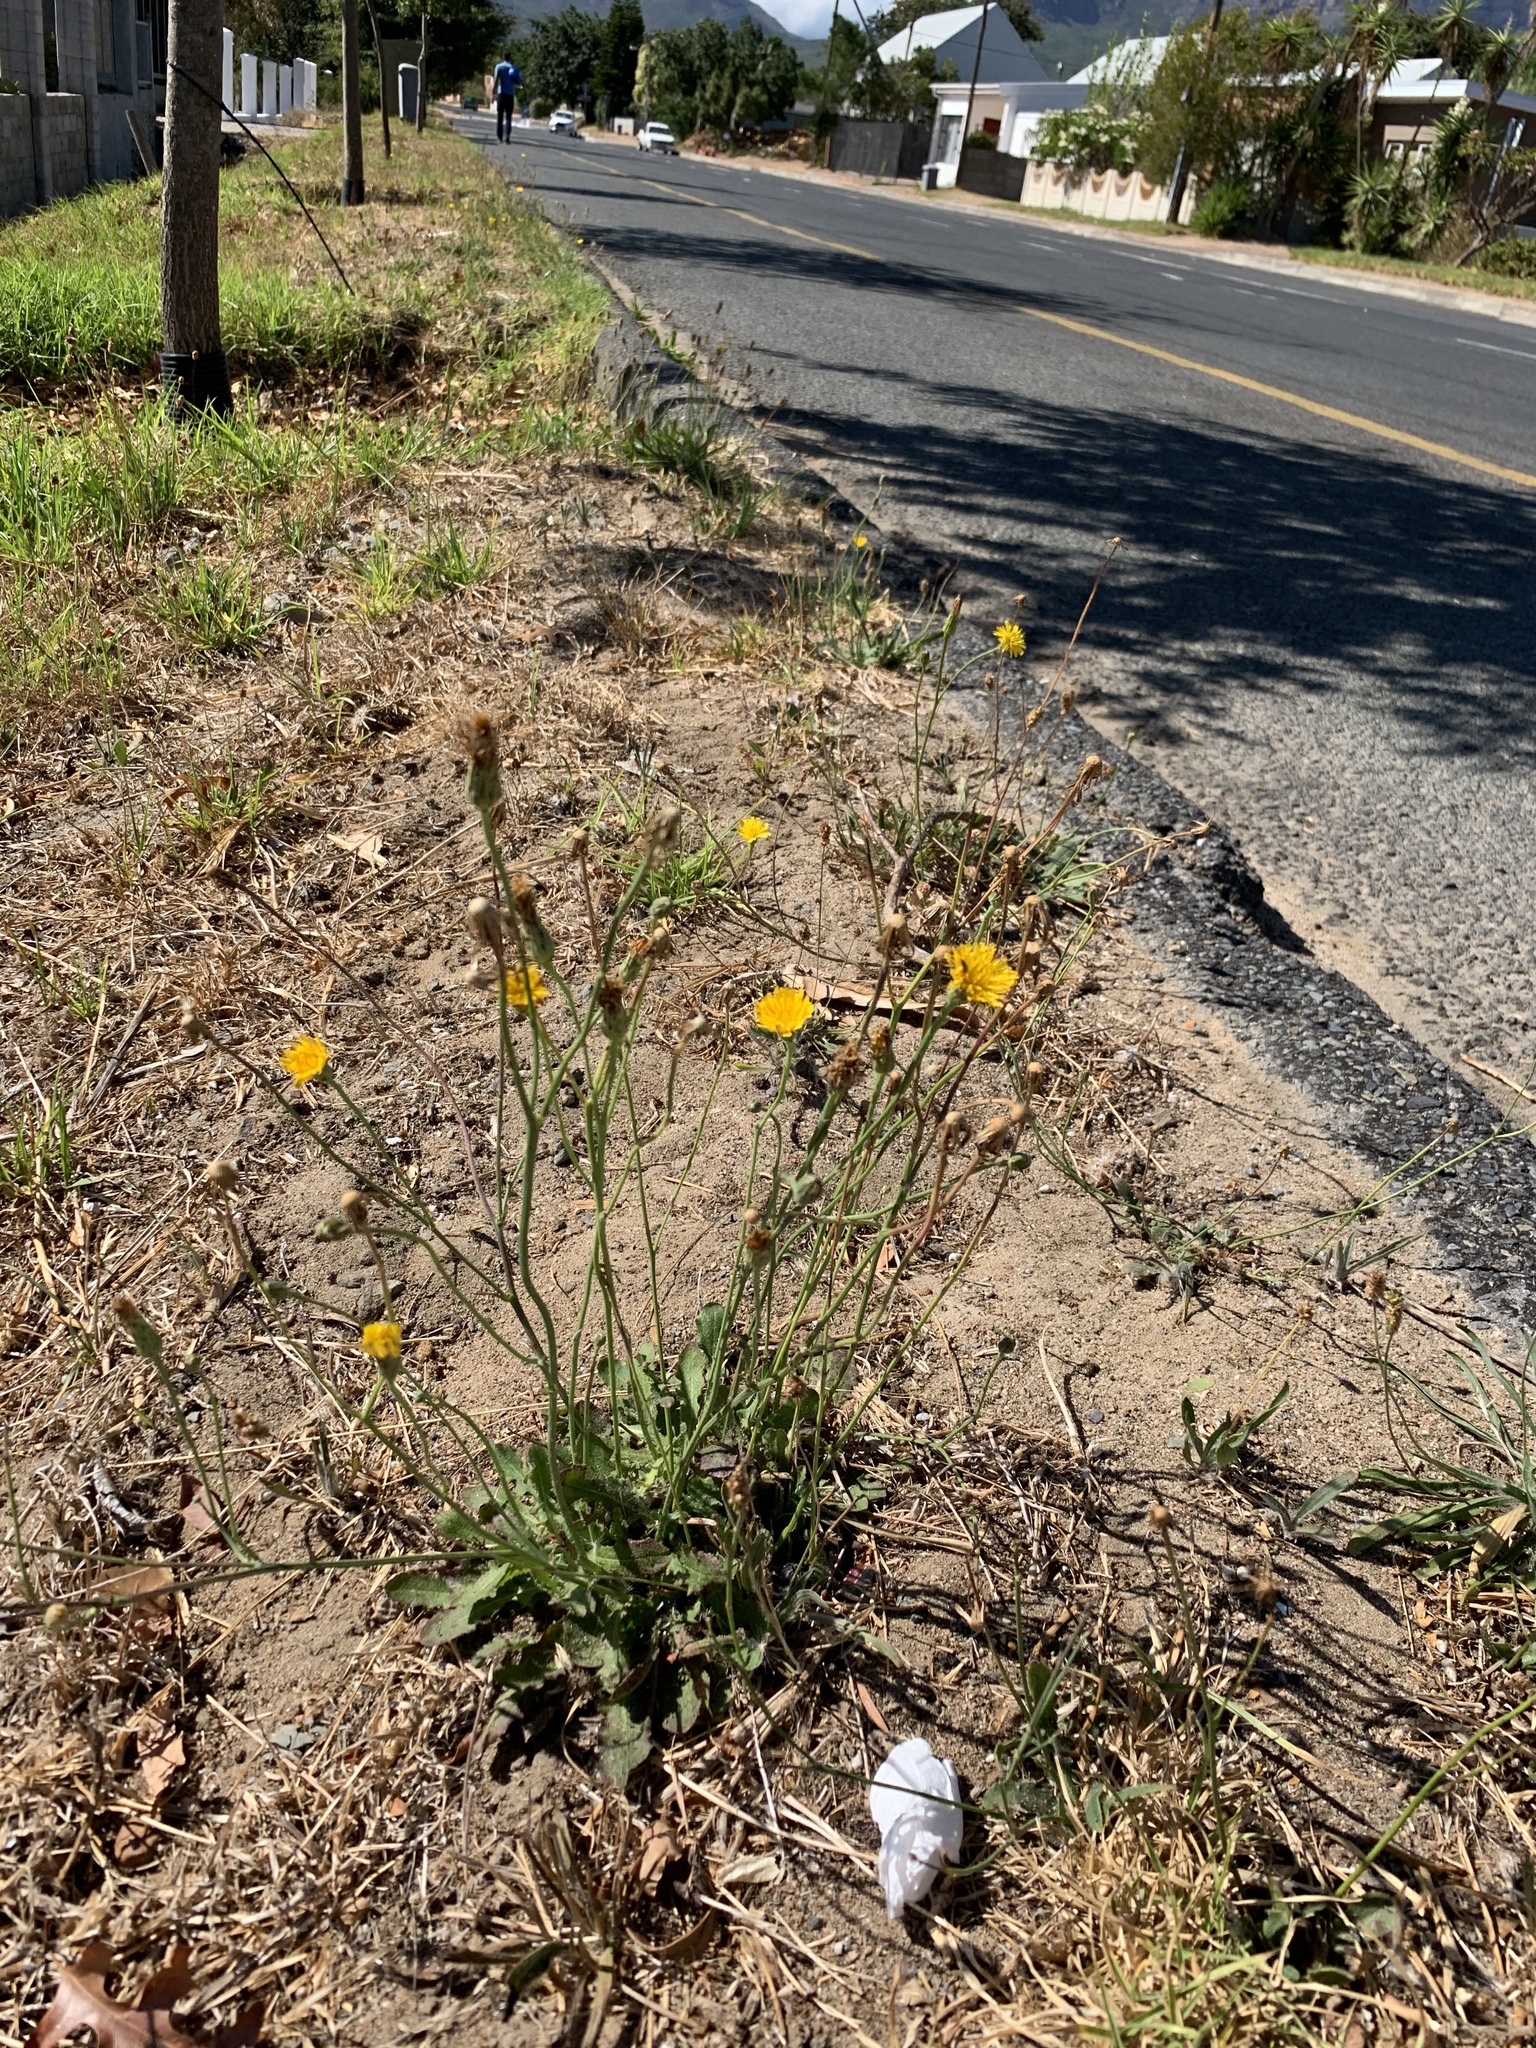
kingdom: Plantae
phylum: Tracheophyta
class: Magnoliopsida
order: Asterales
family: Asteraceae
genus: Hypochaeris
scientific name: Hypochaeris radicata
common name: Flatweed
